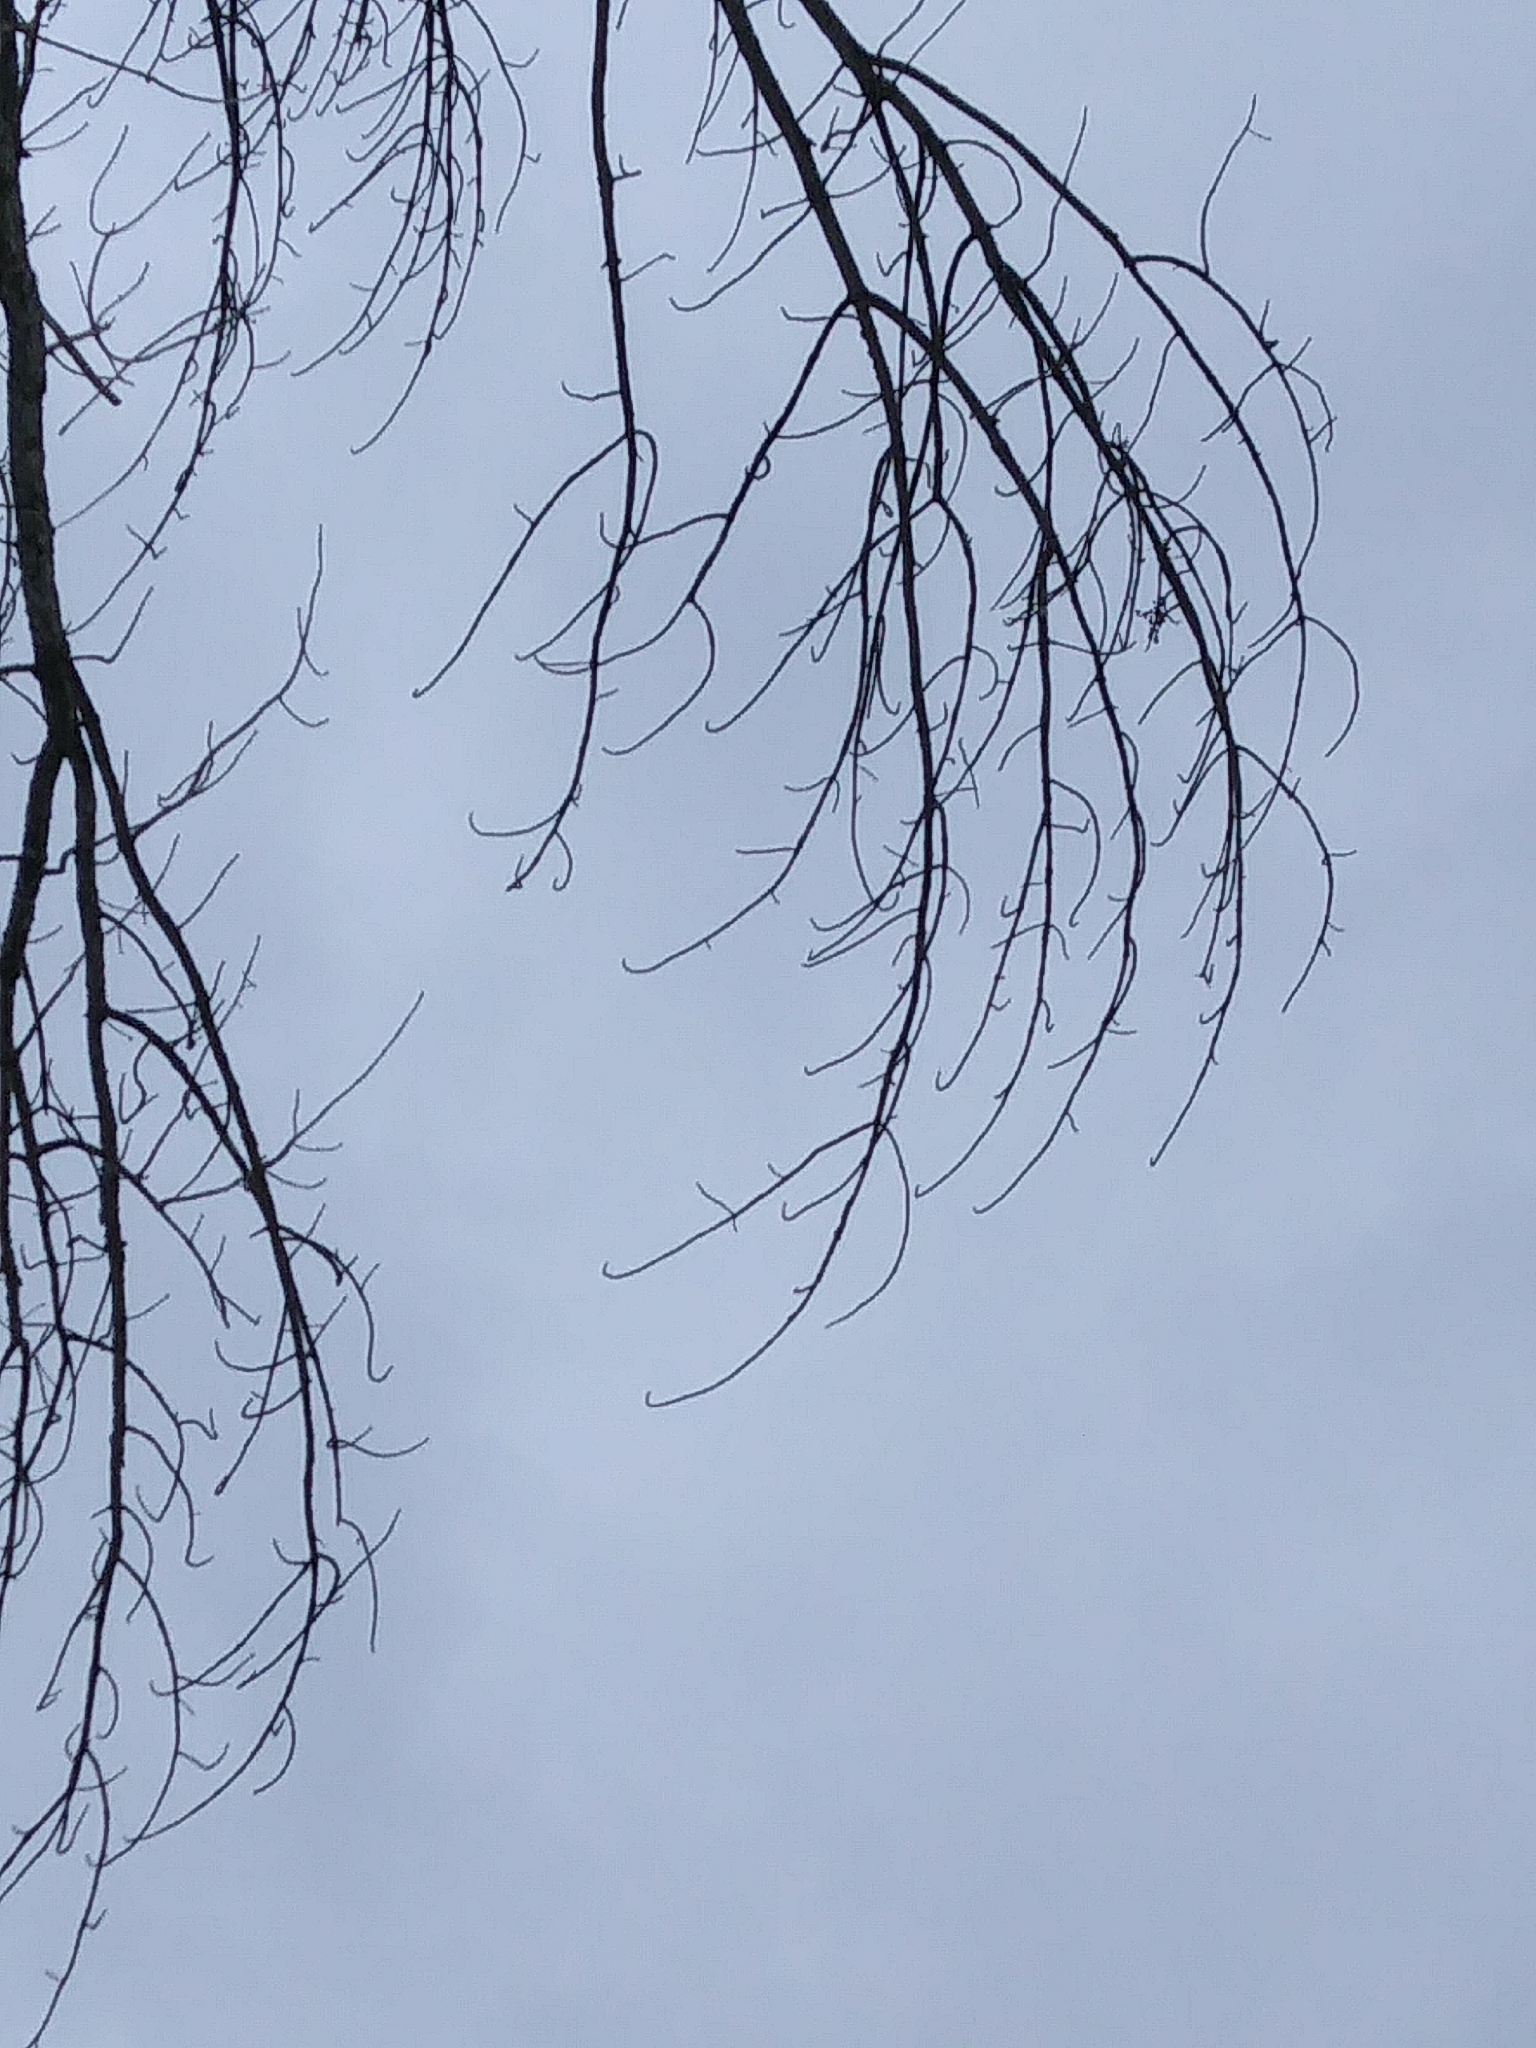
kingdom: Plantae
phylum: Tracheophyta
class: Magnoliopsida
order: Lamiales
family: Oleaceae
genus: Fraxinus
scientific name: Fraxinus americana
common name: White ash
